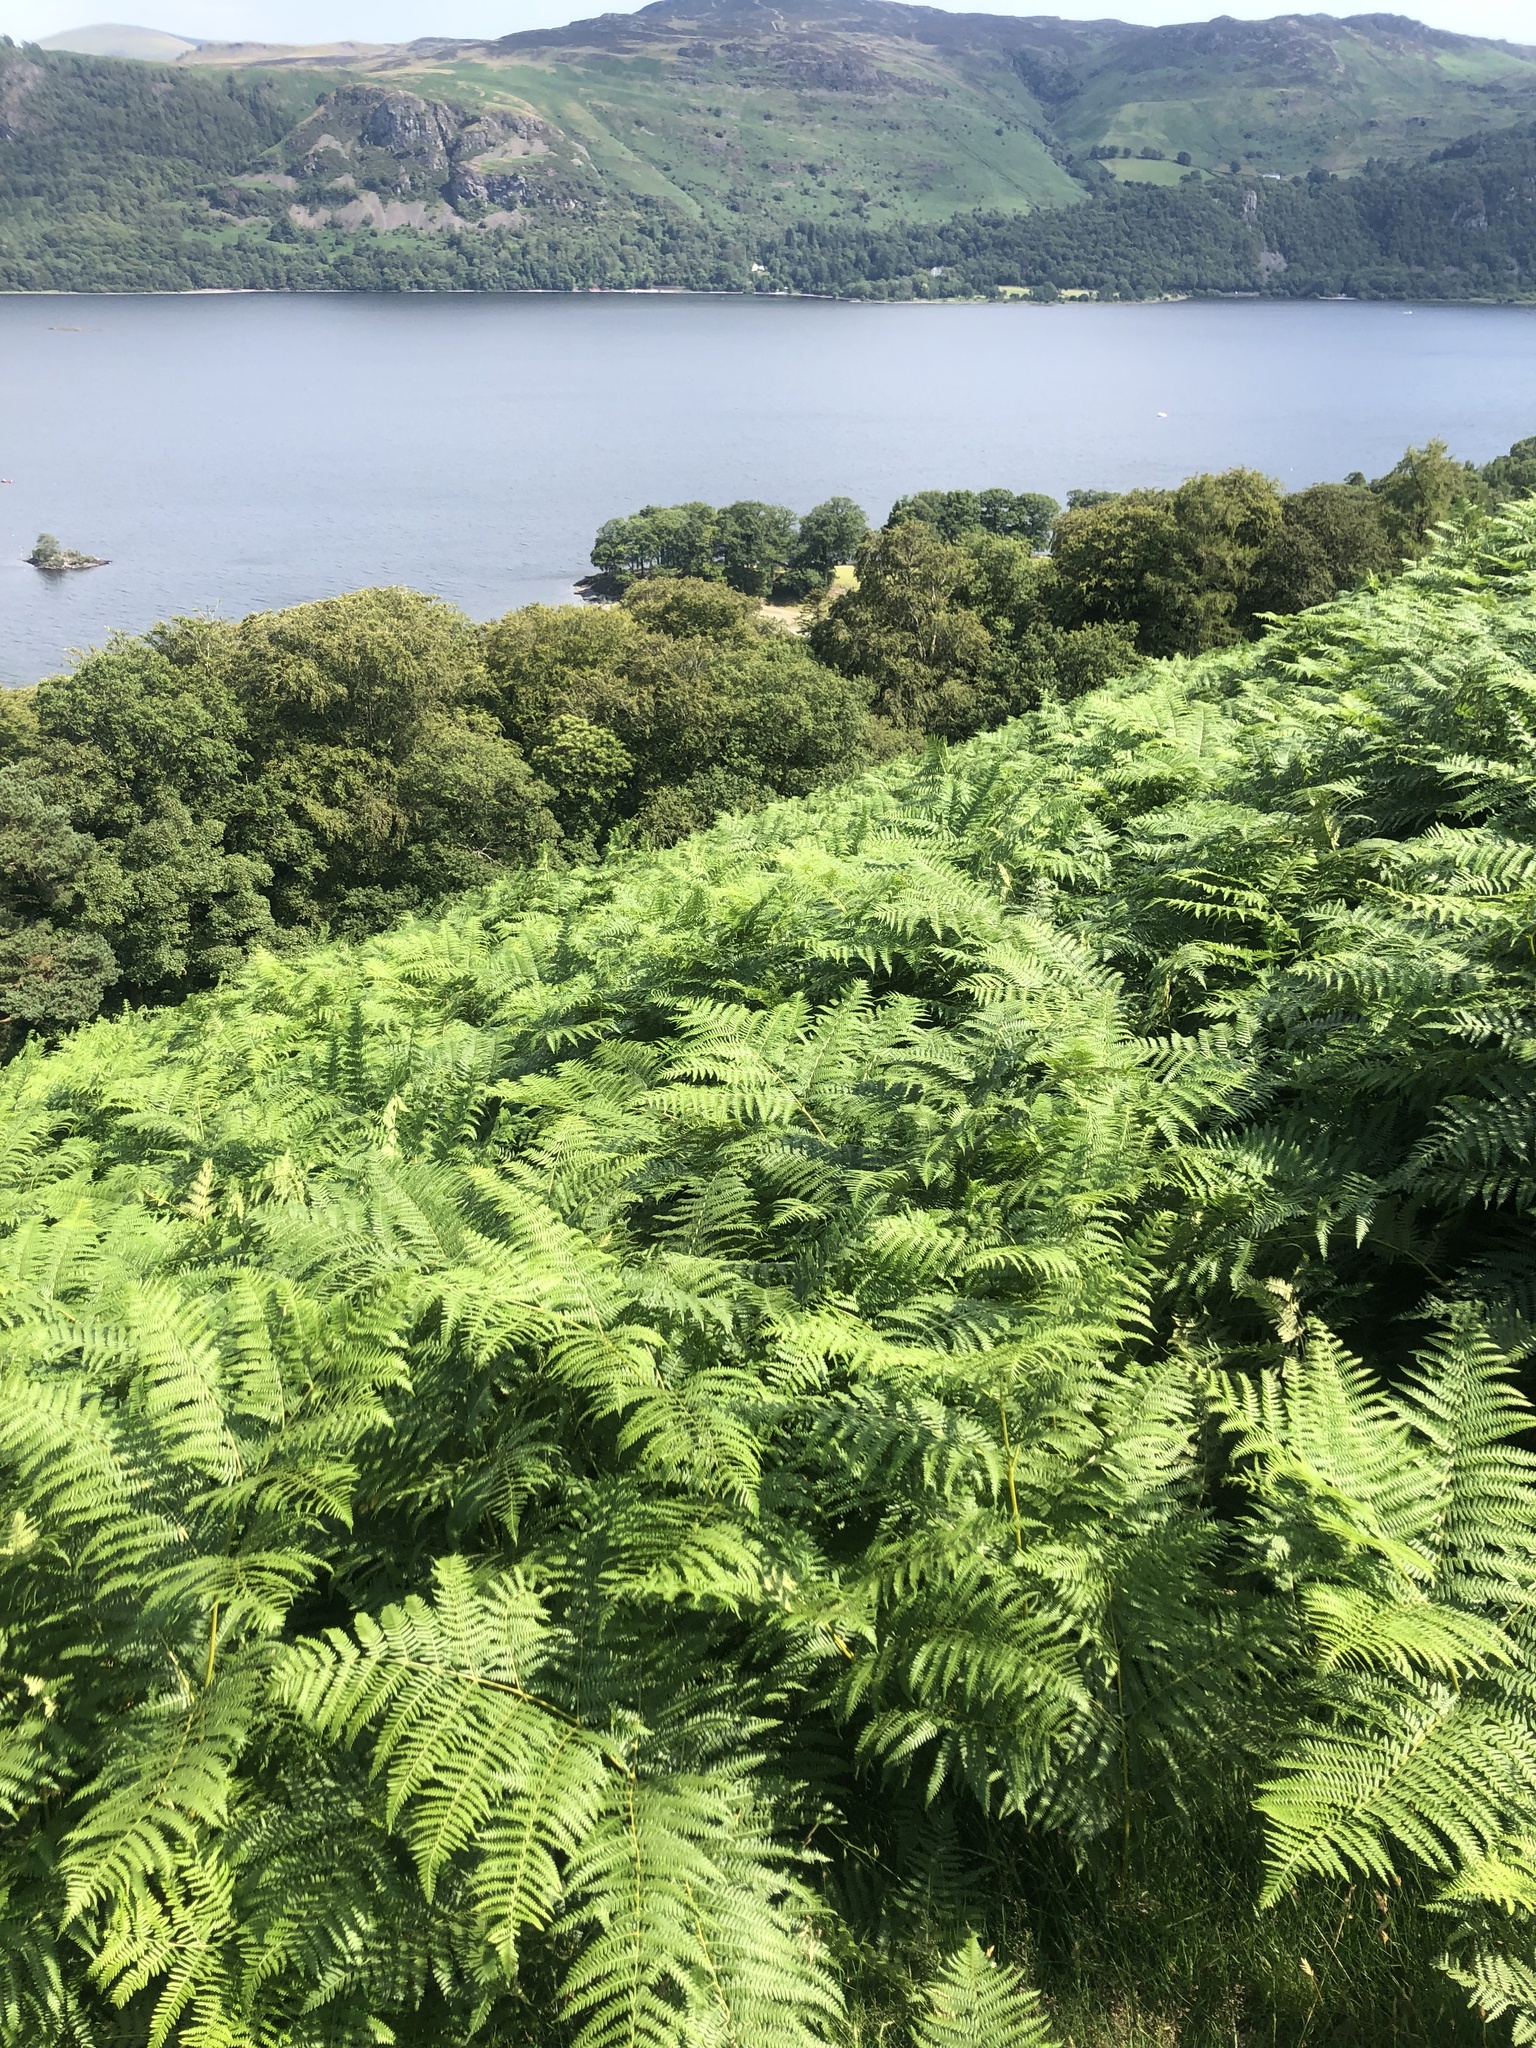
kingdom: Plantae
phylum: Tracheophyta
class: Polypodiopsida
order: Polypodiales
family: Dennstaedtiaceae
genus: Pteridium
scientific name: Pteridium aquilinum
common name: Bracken
